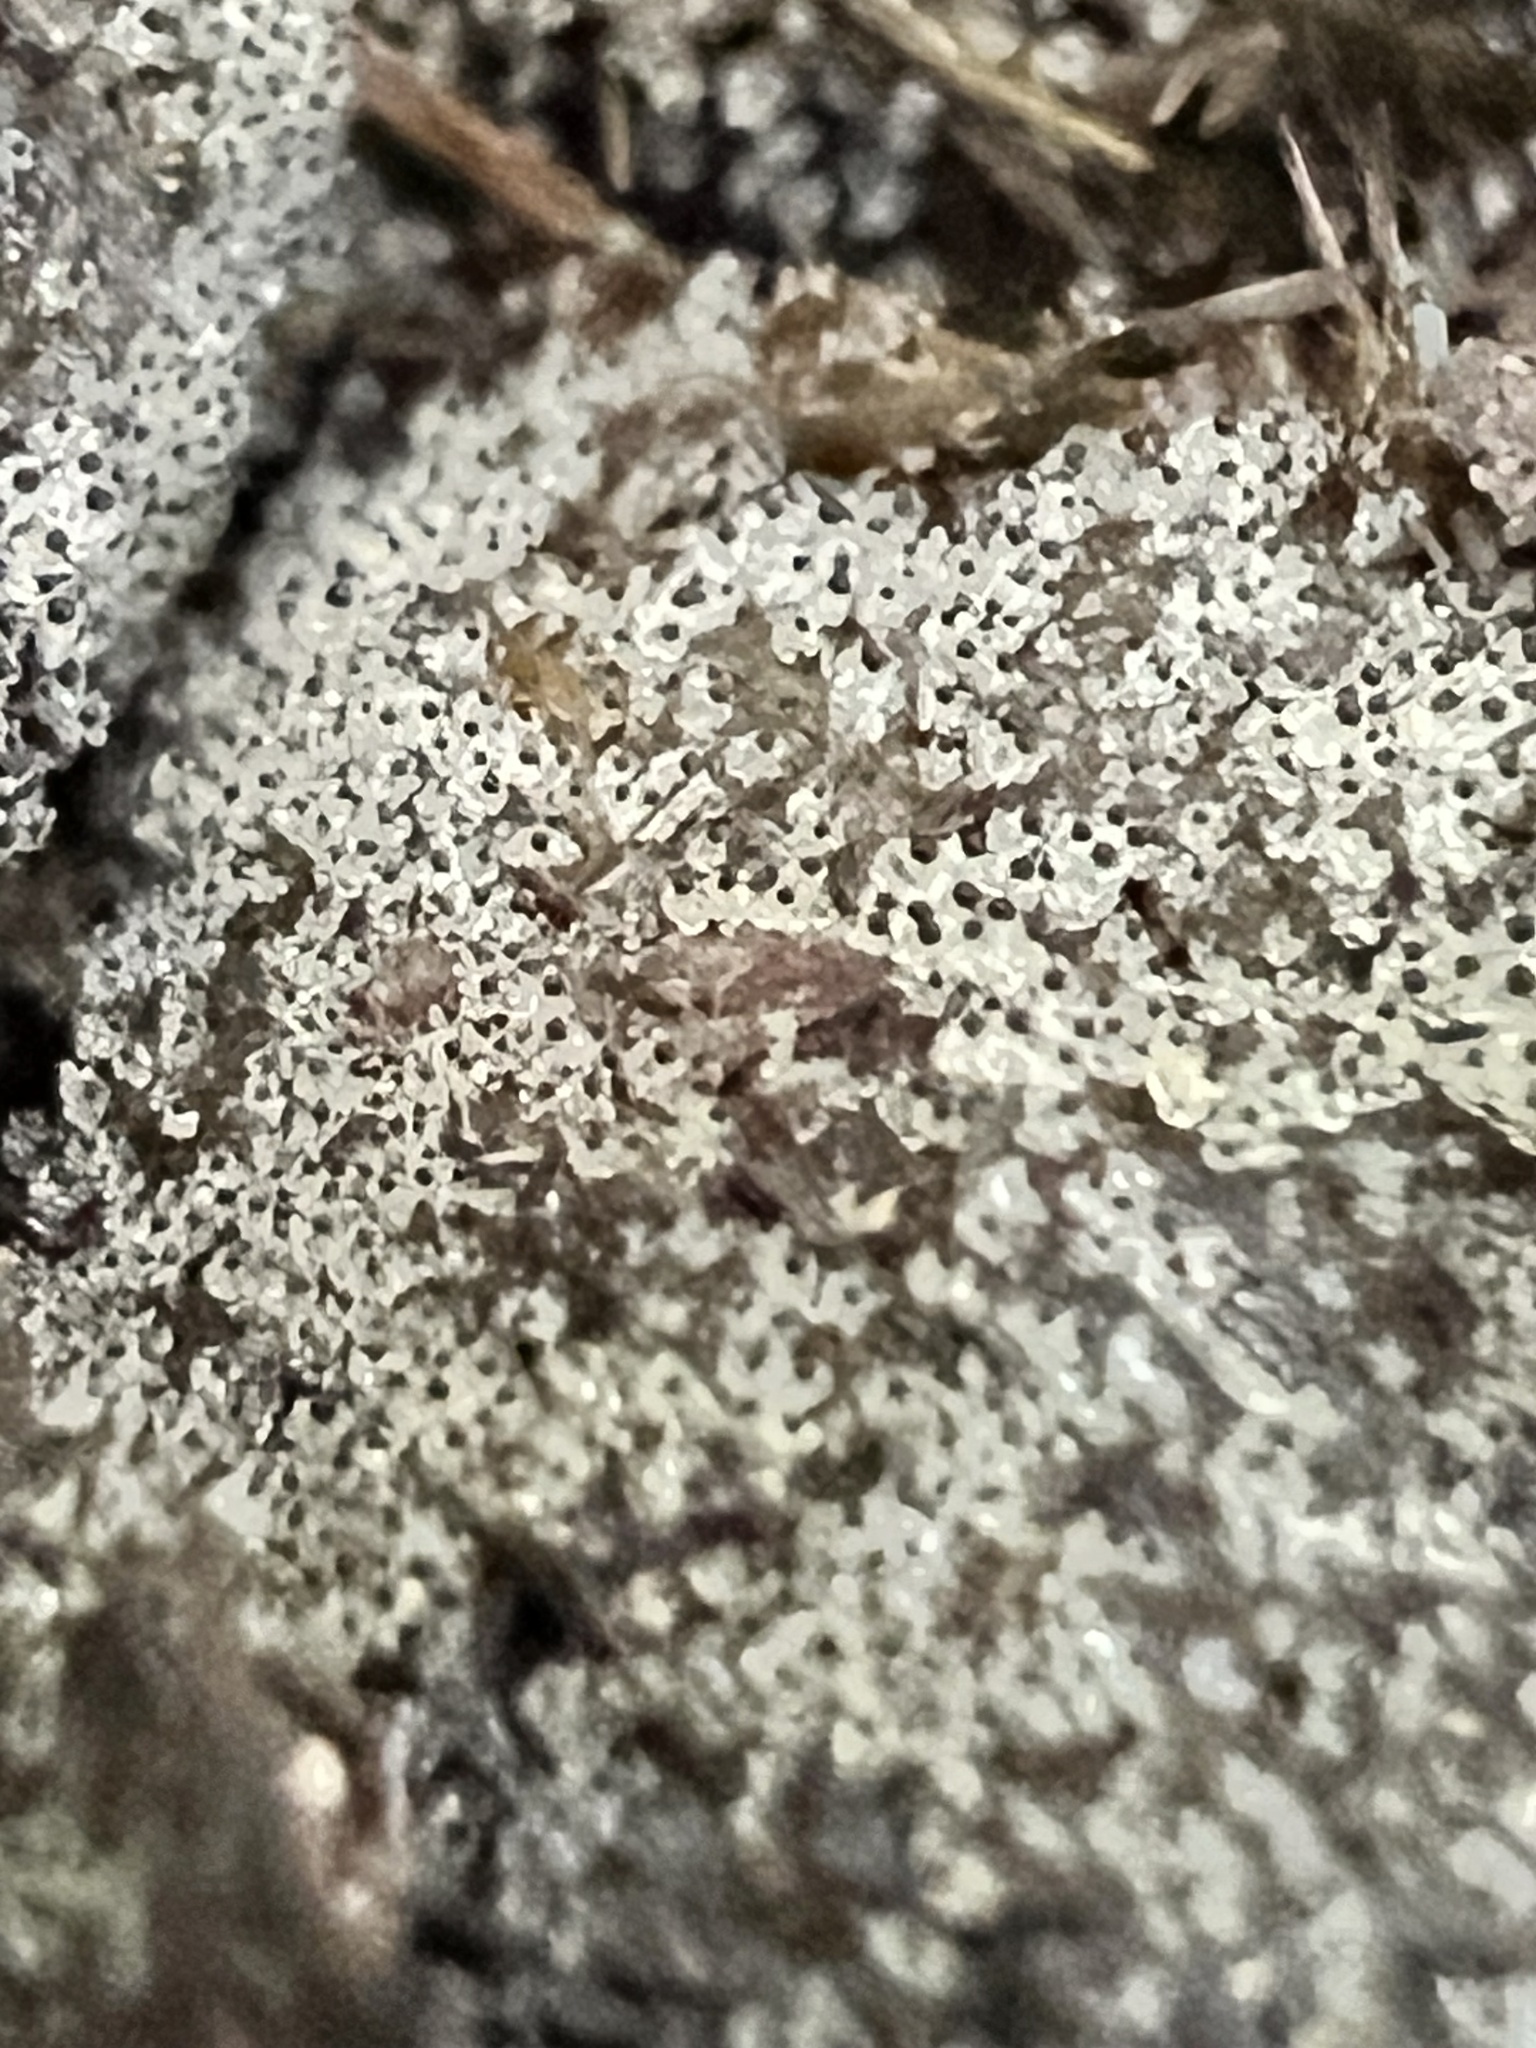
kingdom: Fungi
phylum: Mucoromycota
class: Mucoromycetes
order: Mucorales
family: Pilobolaceae
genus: Pilobolus
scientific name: Pilobolus
